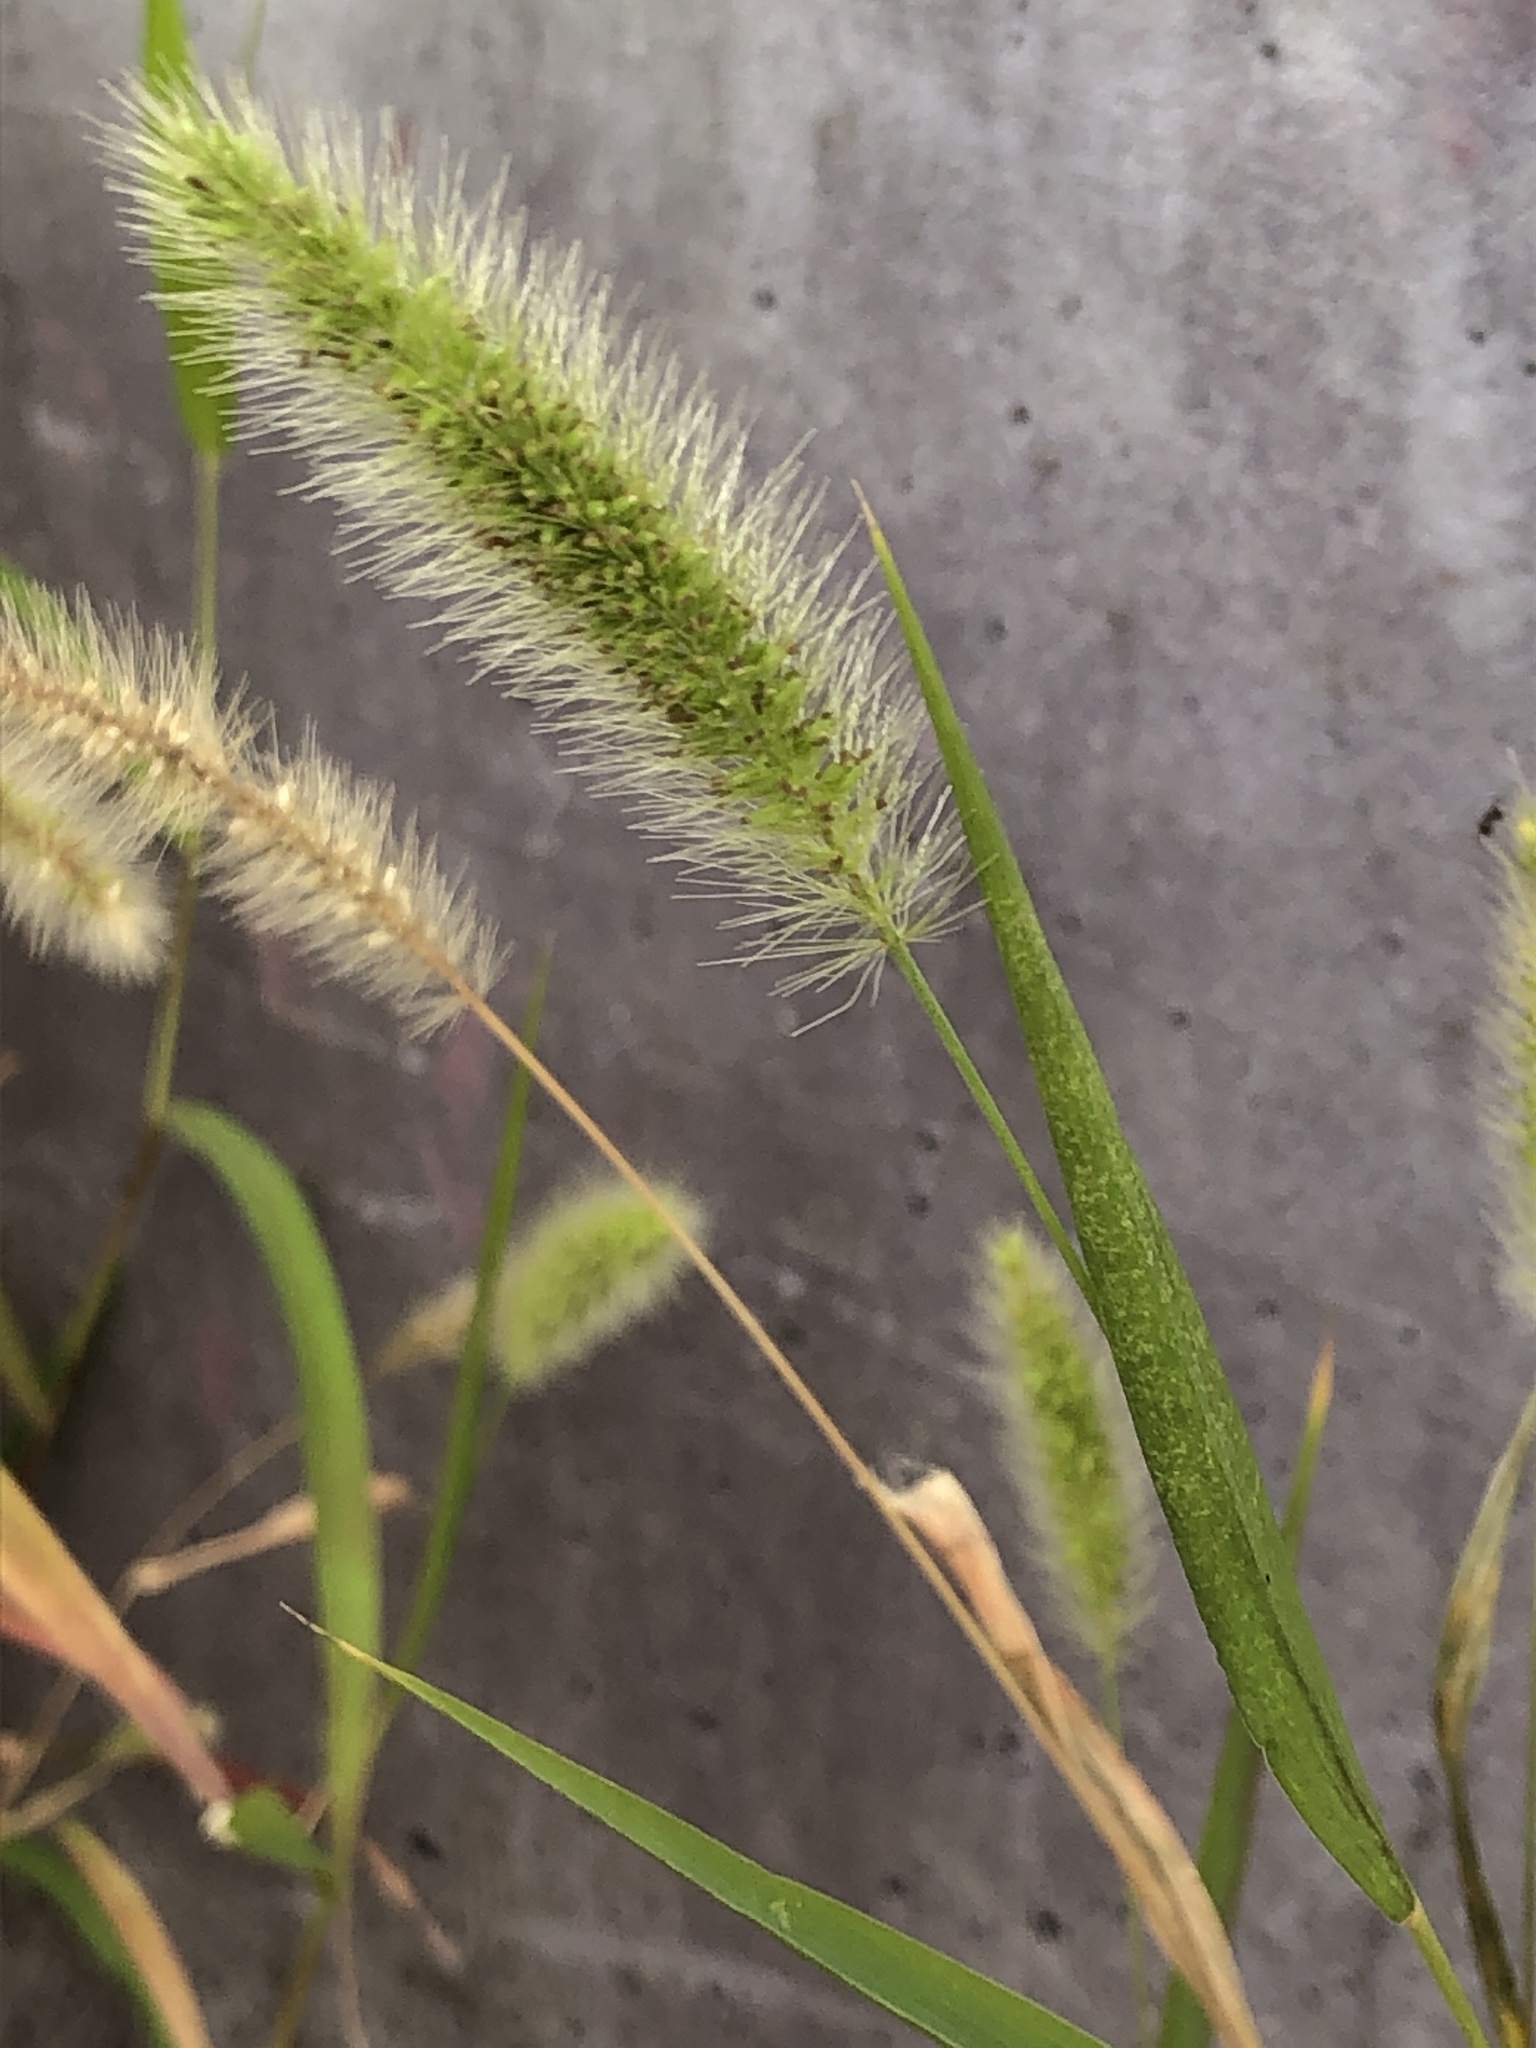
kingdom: Plantae
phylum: Tracheophyta
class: Liliopsida
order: Poales
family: Poaceae
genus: Setaria
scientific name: Setaria viridis
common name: Green bristlegrass
